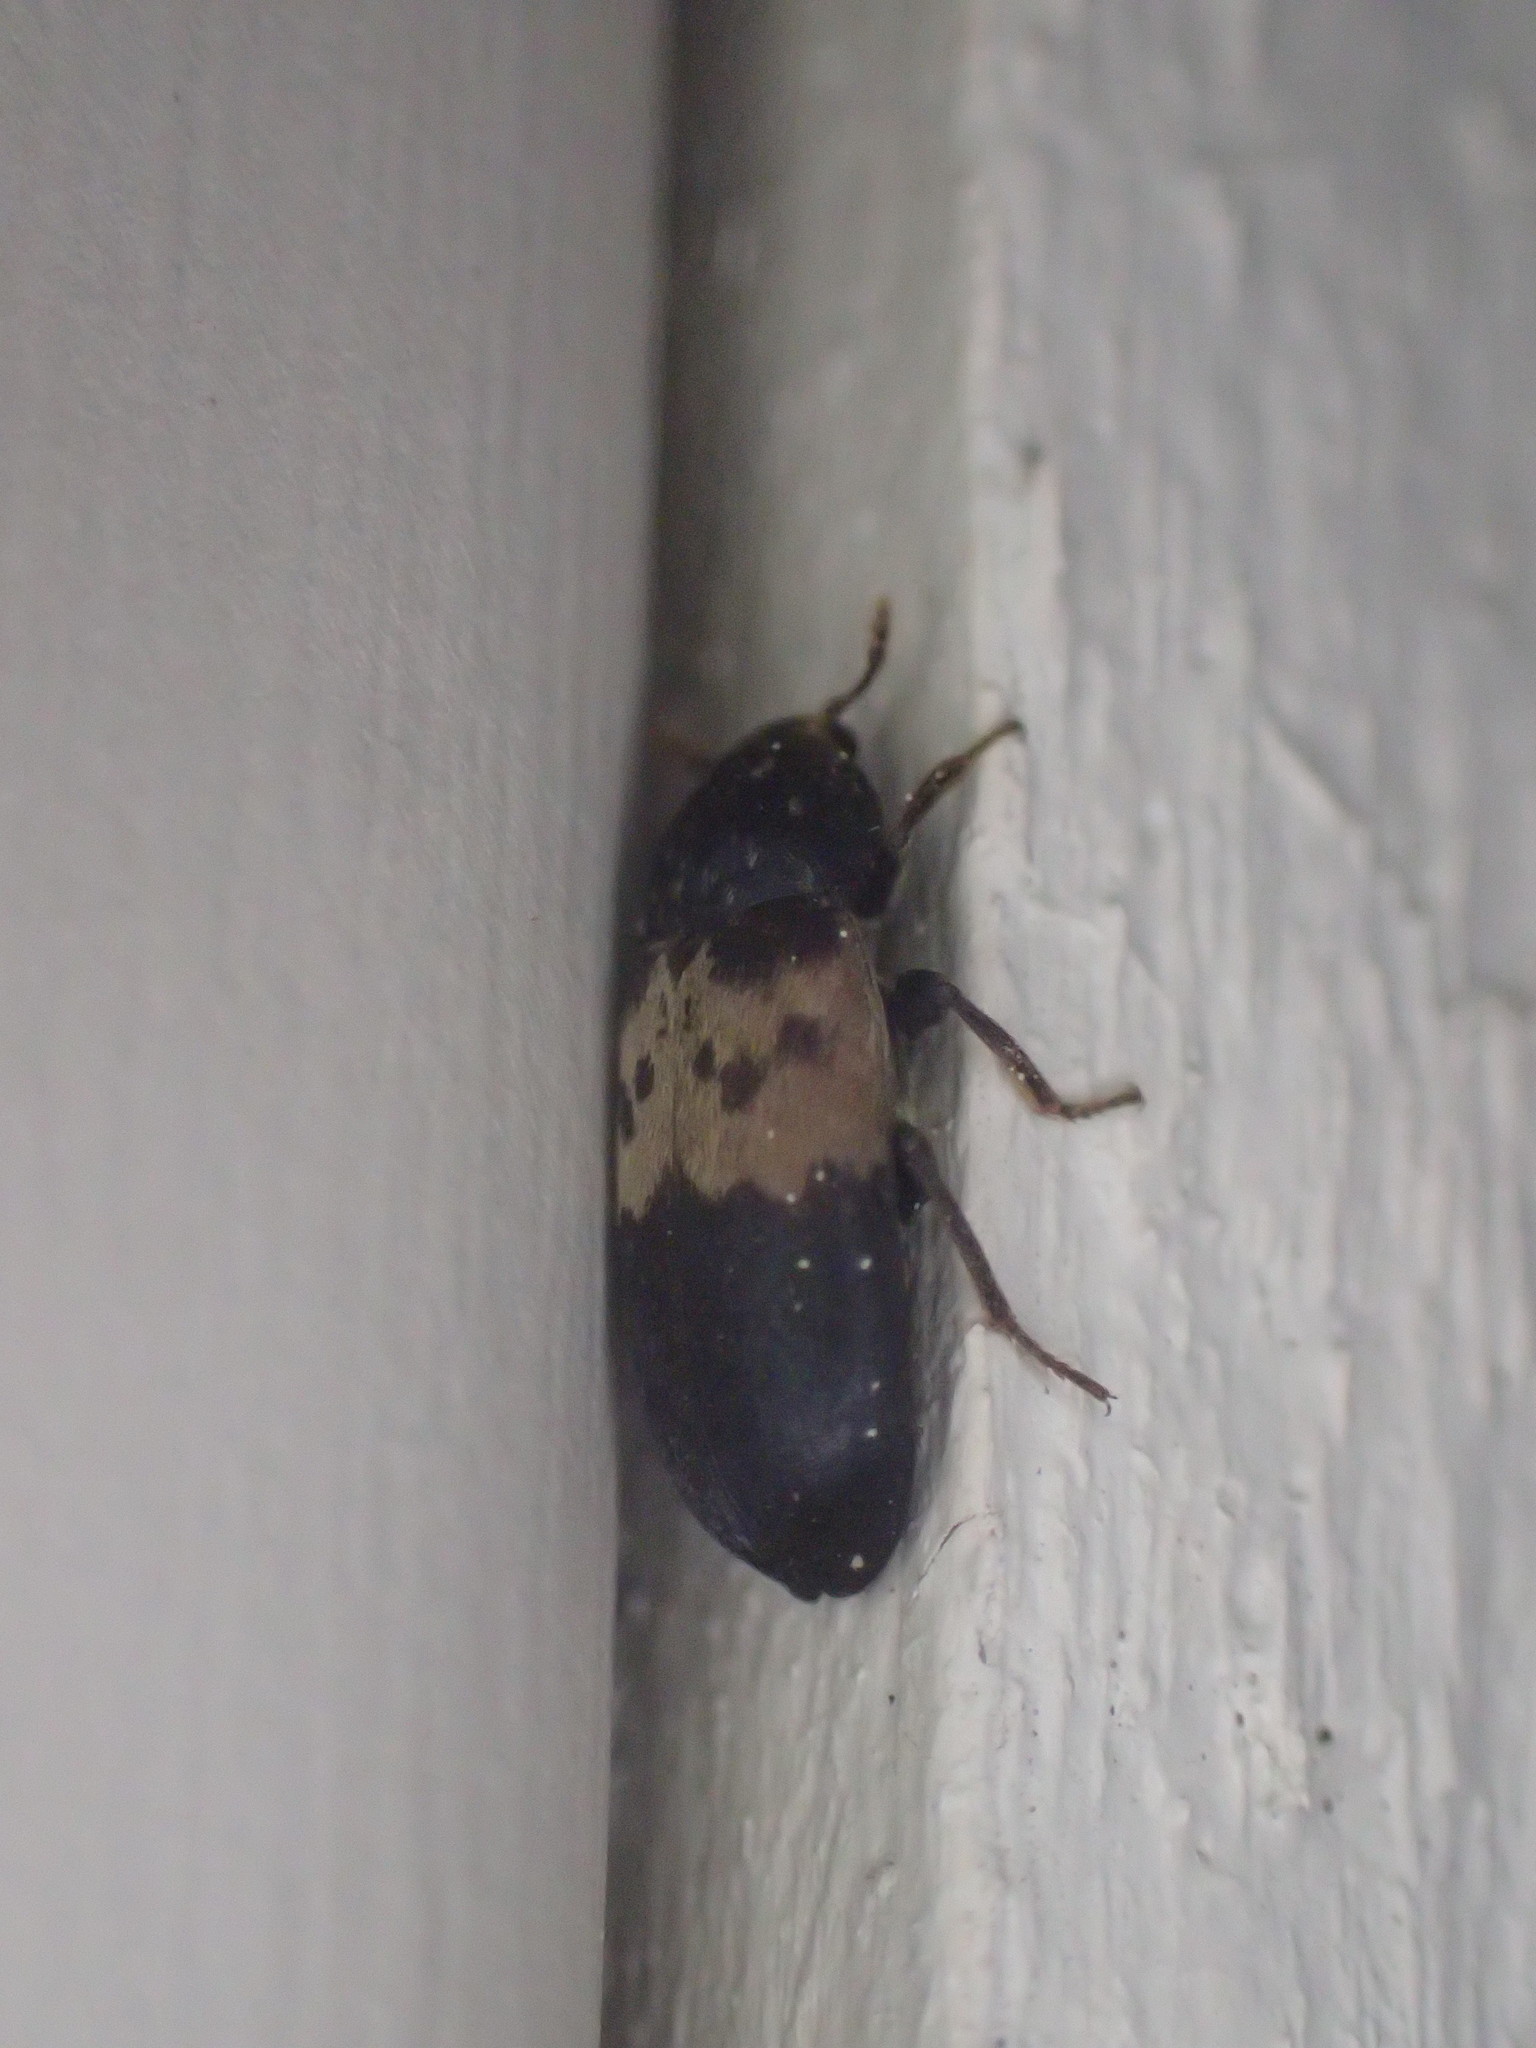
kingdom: Animalia
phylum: Arthropoda
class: Insecta
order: Coleoptera
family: Dermestidae
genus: Dermestes
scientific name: Dermestes lardarius
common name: Larder beetle
